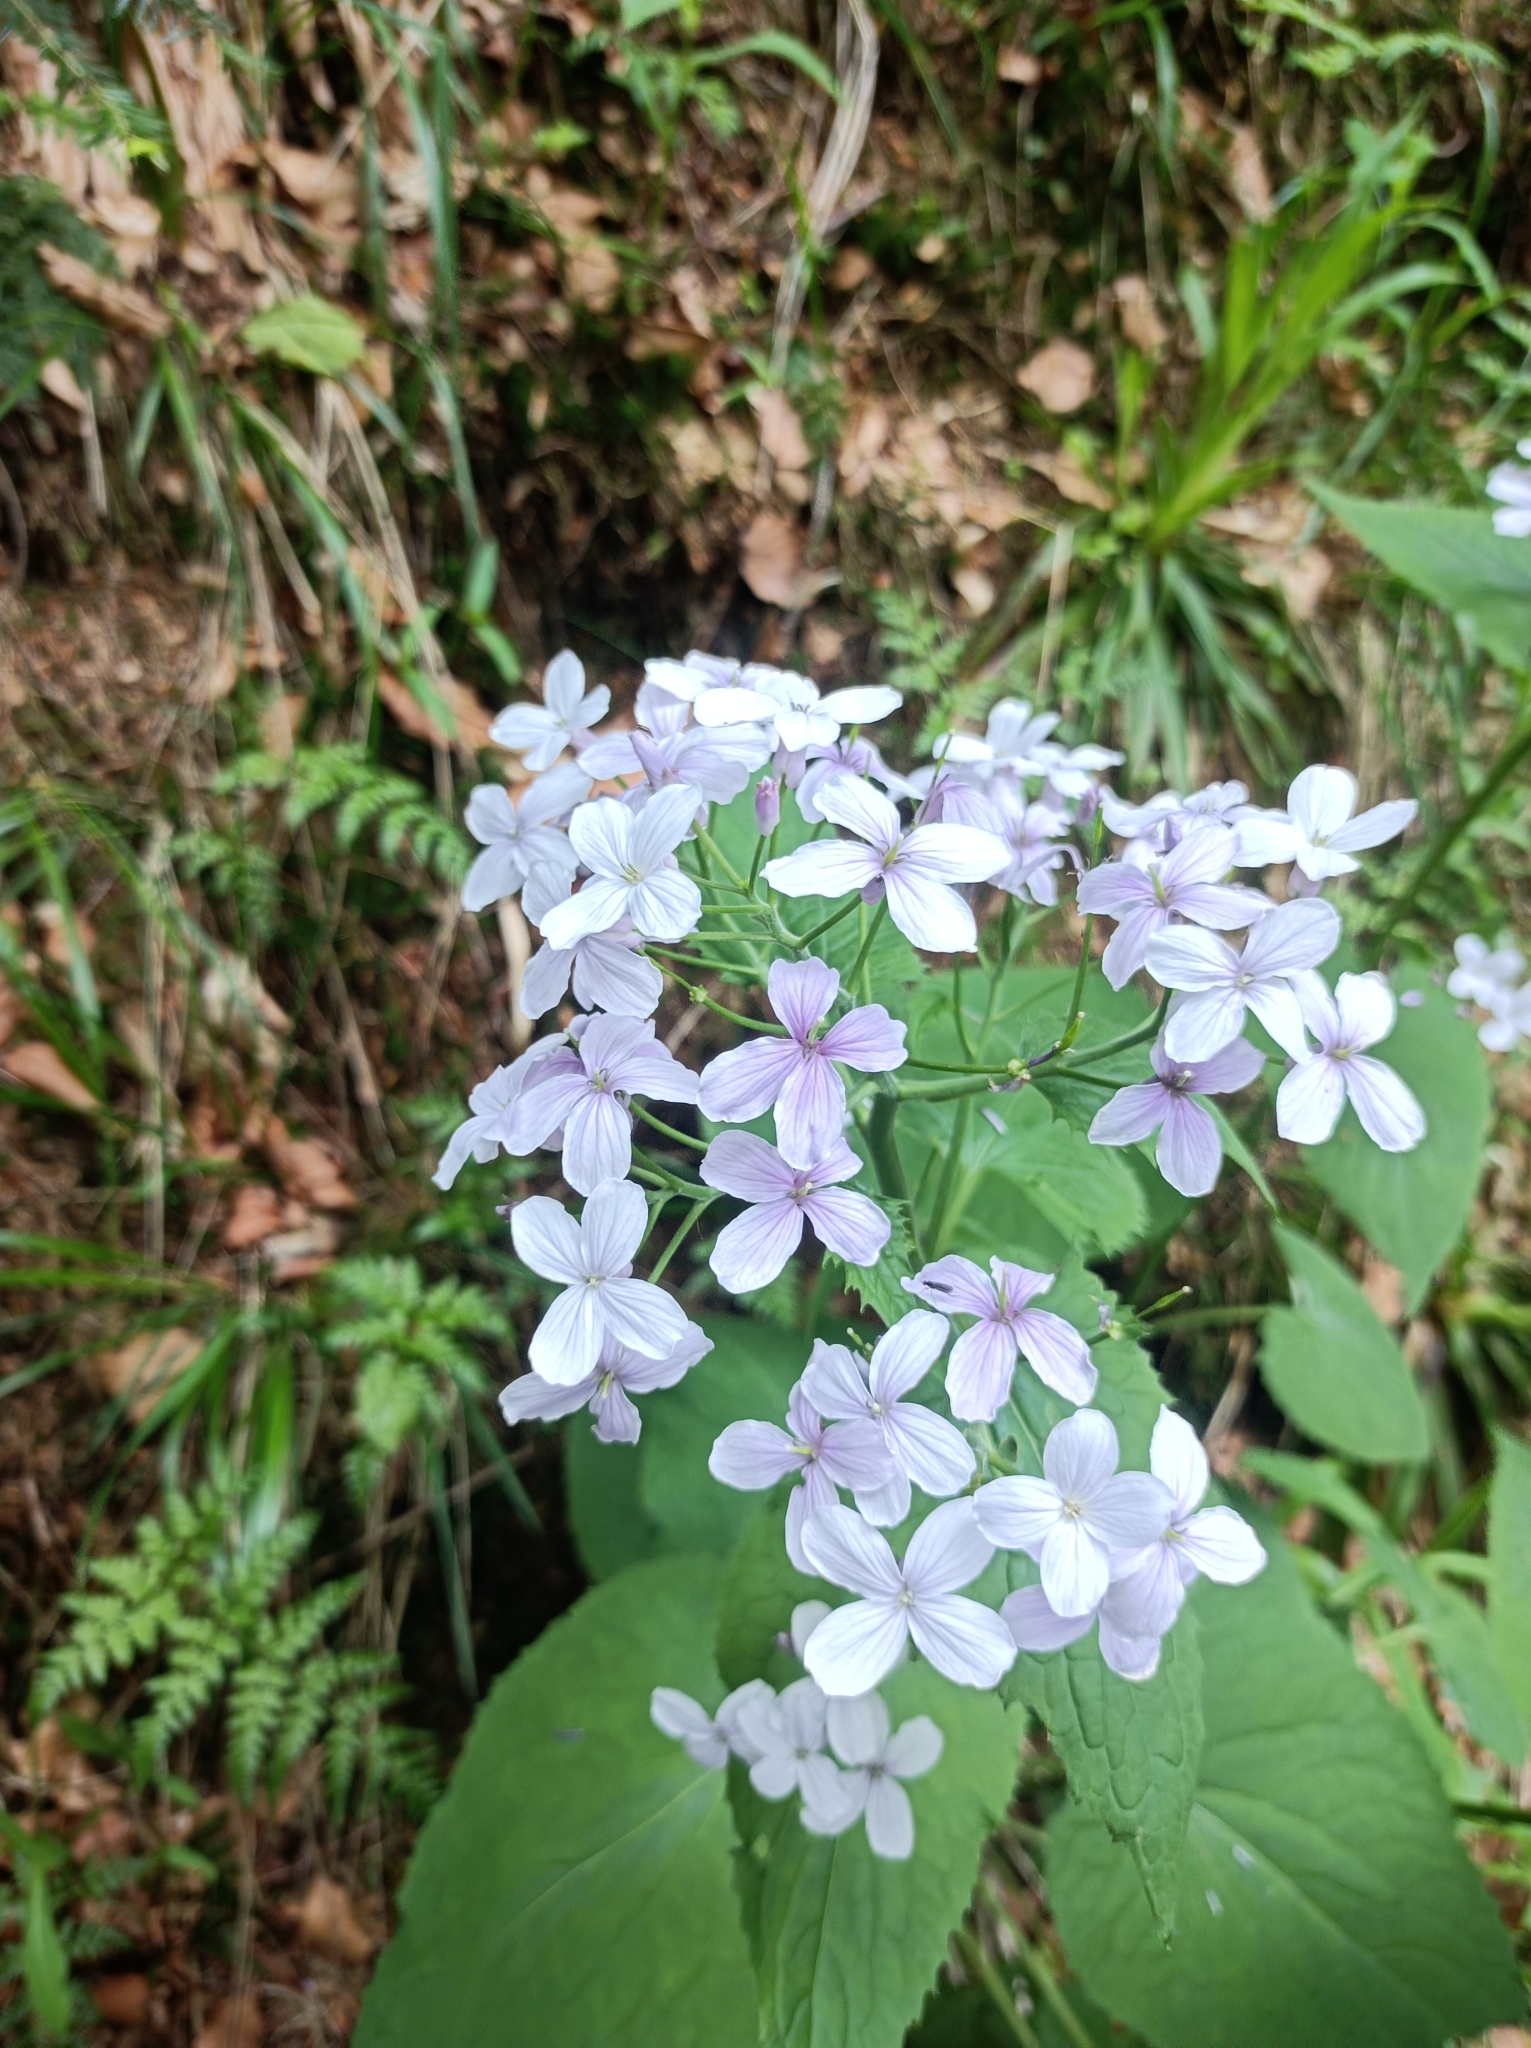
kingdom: Plantae
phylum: Tracheophyta
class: Magnoliopsida
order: Brassicales
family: Brassicaceae
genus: Lunaria
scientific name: Lunaria rediviva
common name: Perennial honesty
